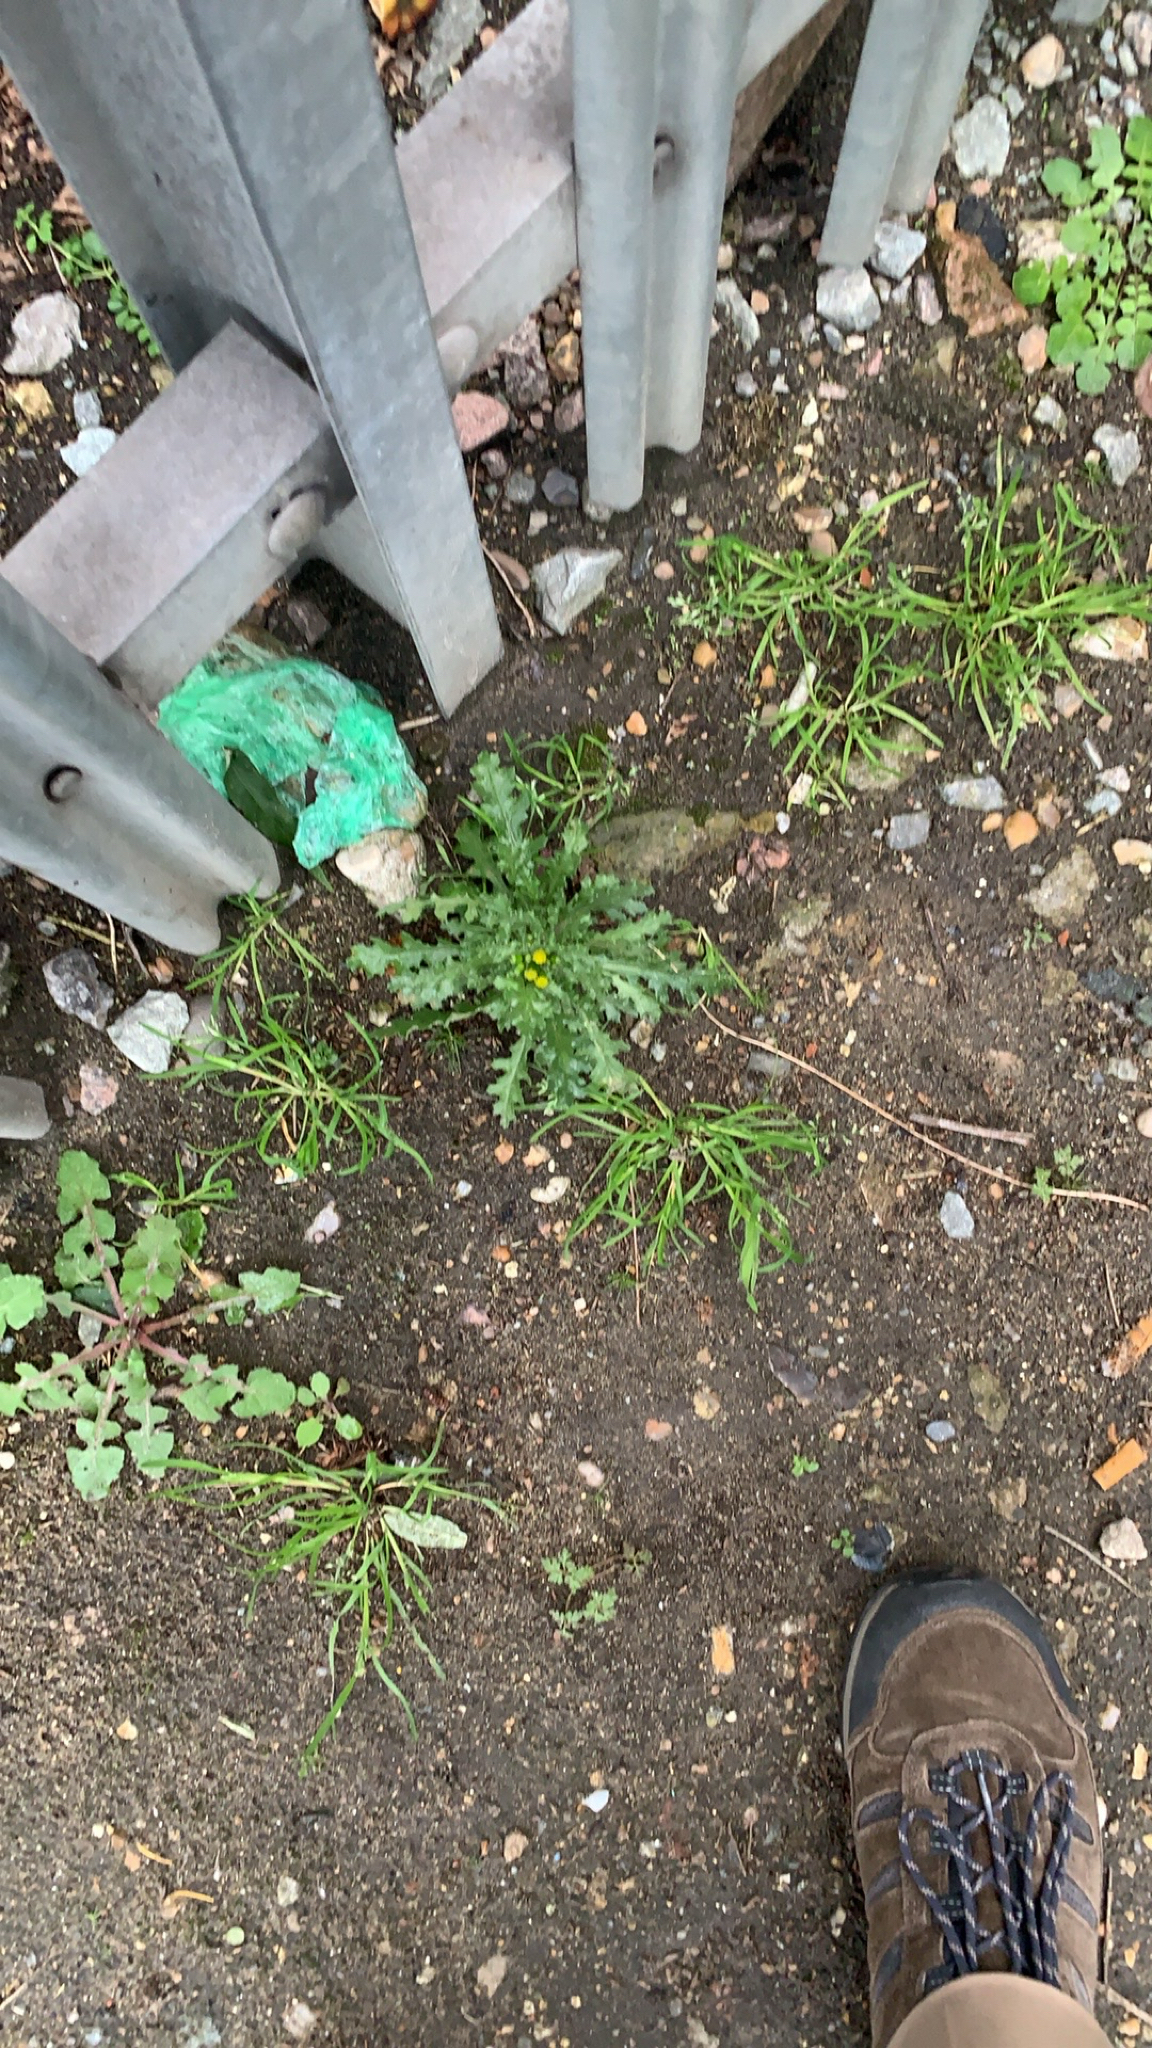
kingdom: Plantae
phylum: Tracheophyta
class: Magnoliopsida
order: Asterales
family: Asteraceae
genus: Senecio
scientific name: Senecio vulgaris
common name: Old-man-in-the-spring
